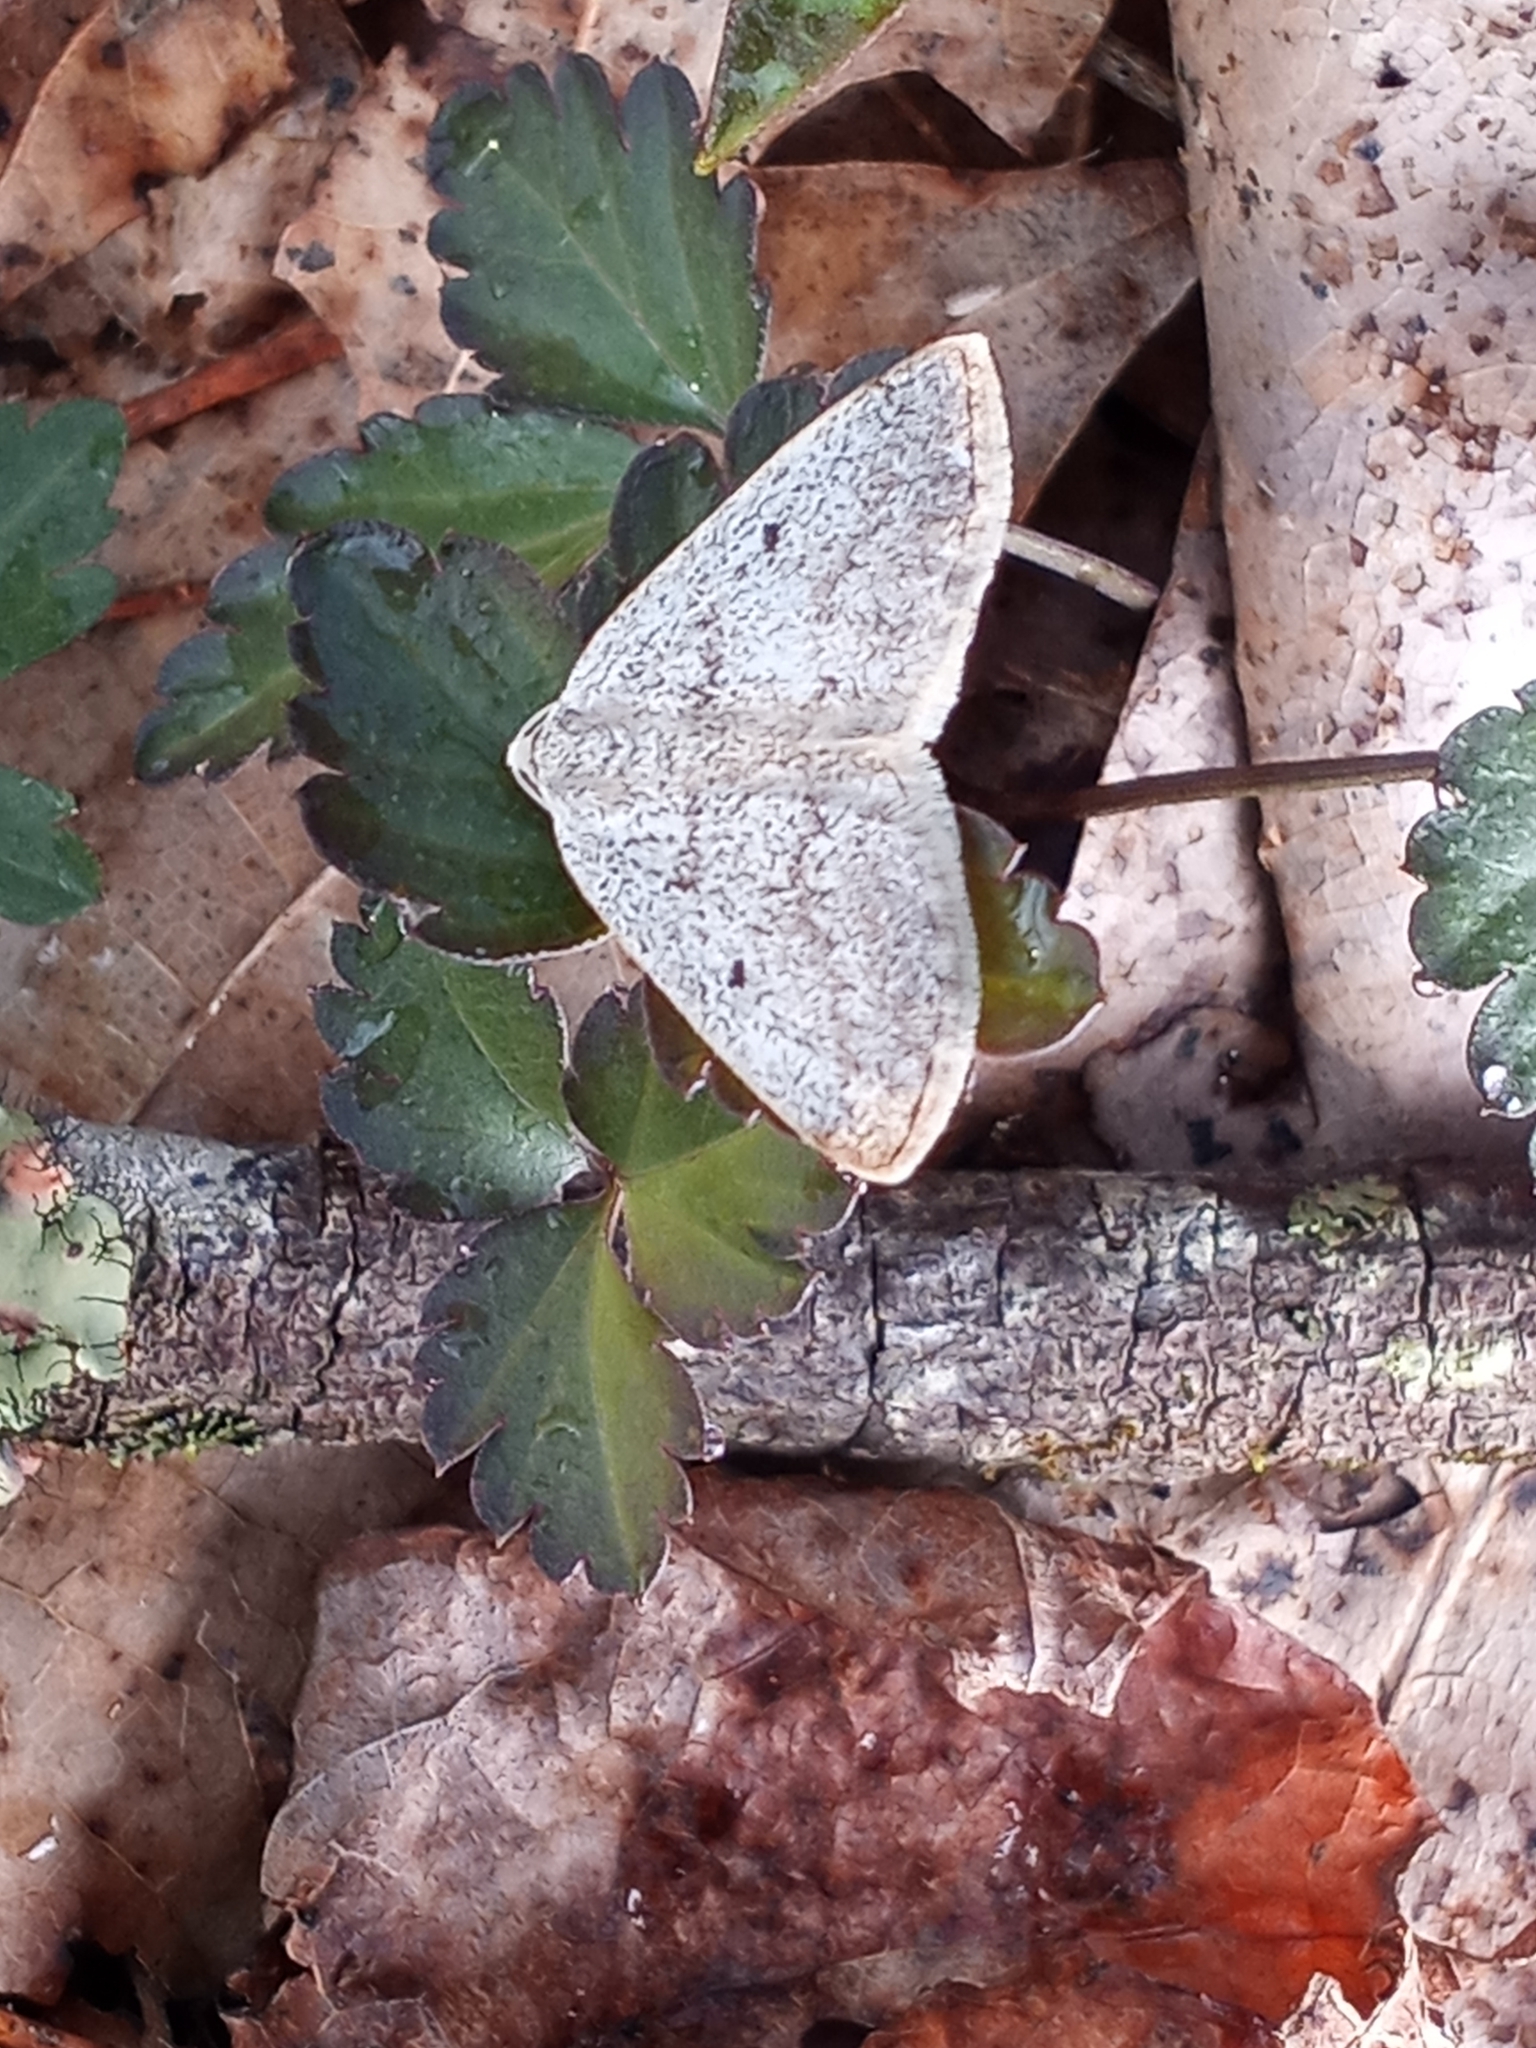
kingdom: Animalia
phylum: Arthropoda
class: Insecta
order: Lepidoptera
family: Geometridae
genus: Lomographa
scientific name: Lomographa glomeraria
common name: Gray spring moth
